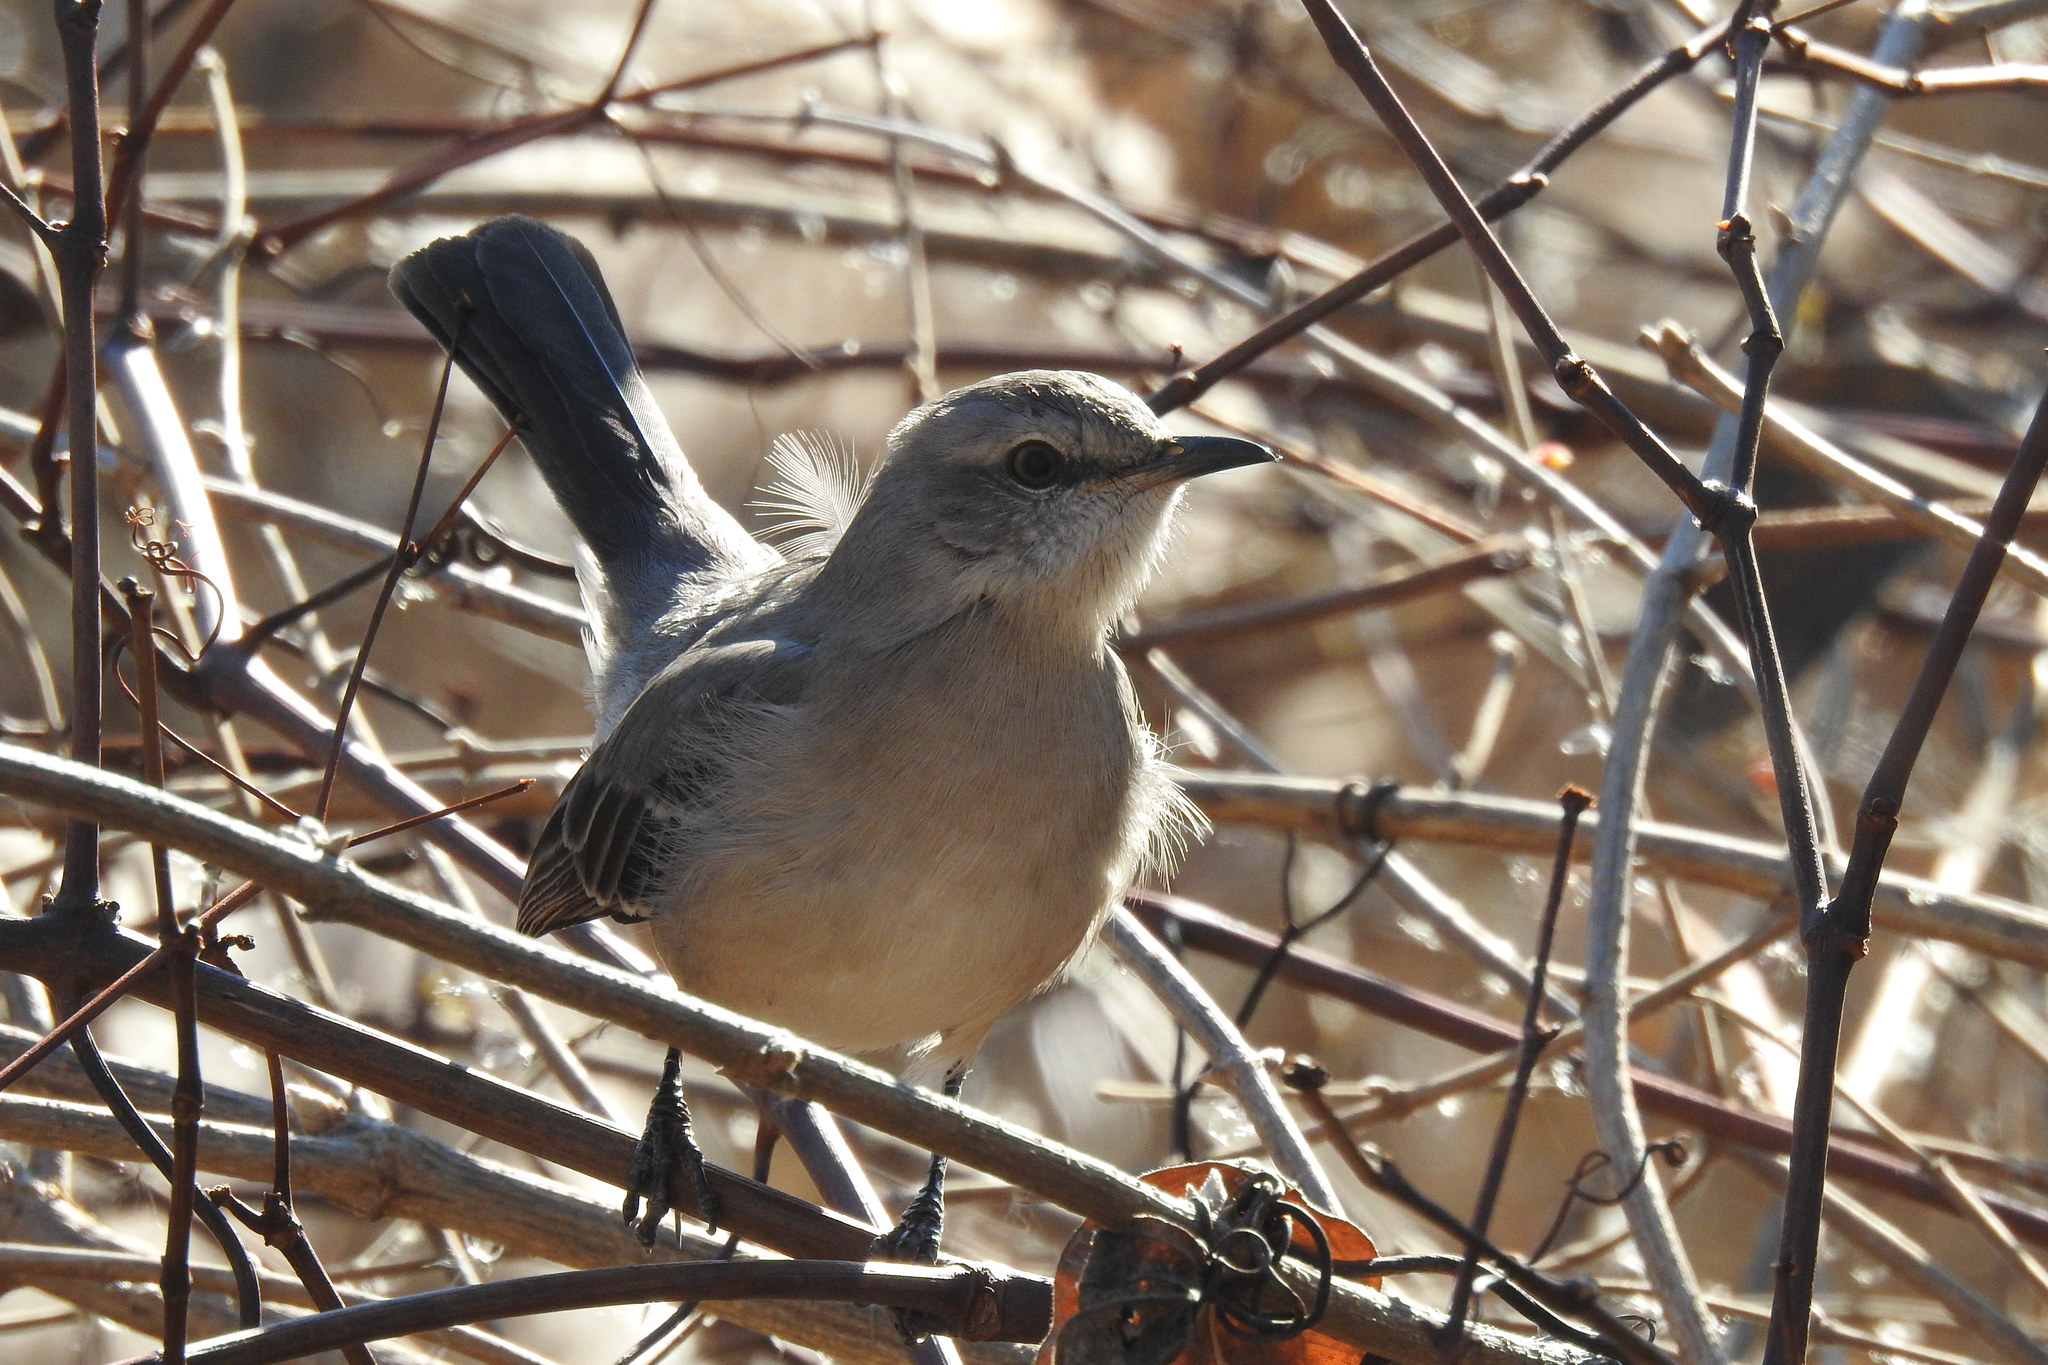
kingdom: Animalia
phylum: Chordata
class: Aves
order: Passeriformes
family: Mimidae
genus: Mimus
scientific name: Mimus polyglottos
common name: Northern mockingbird
